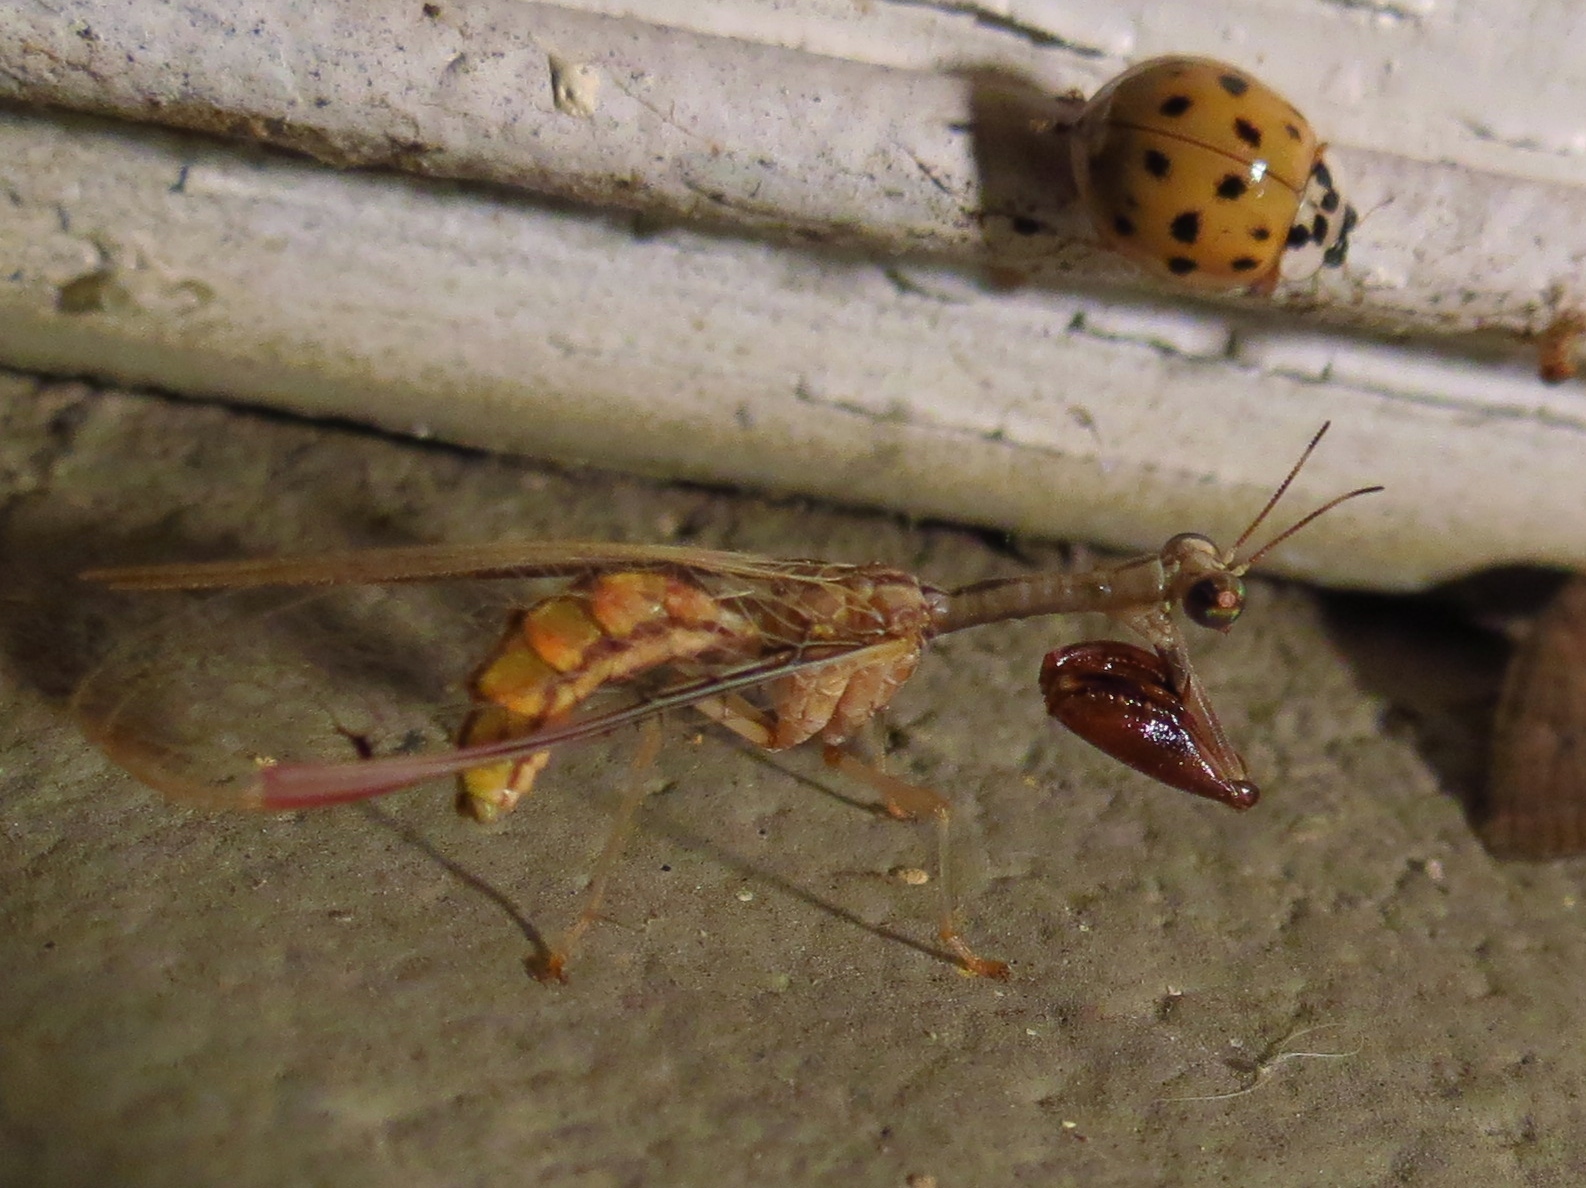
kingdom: Animalia
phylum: Arthropoda
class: Insecta
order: Neuroptera
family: Mantispidae
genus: Dicromantispa
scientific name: Dicromantispa interrupta
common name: Four-spotted mantidfly
